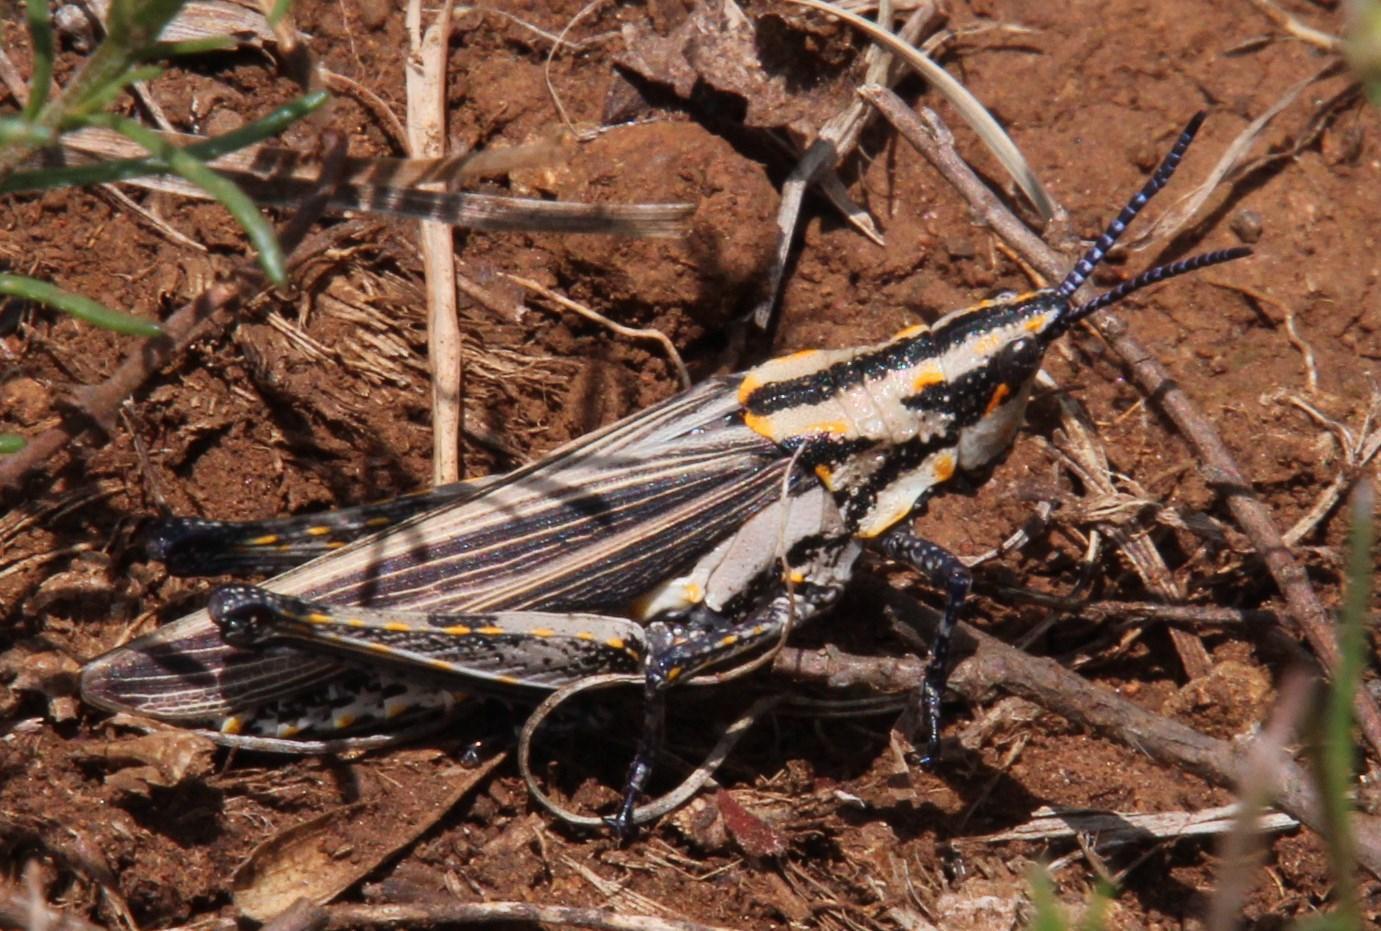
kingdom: Animalia
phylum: Arthropoda
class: Insecta
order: Orthoptera
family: Pyrgomorphidae
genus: Ochrophlebia
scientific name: Ochrophlebia cafra
